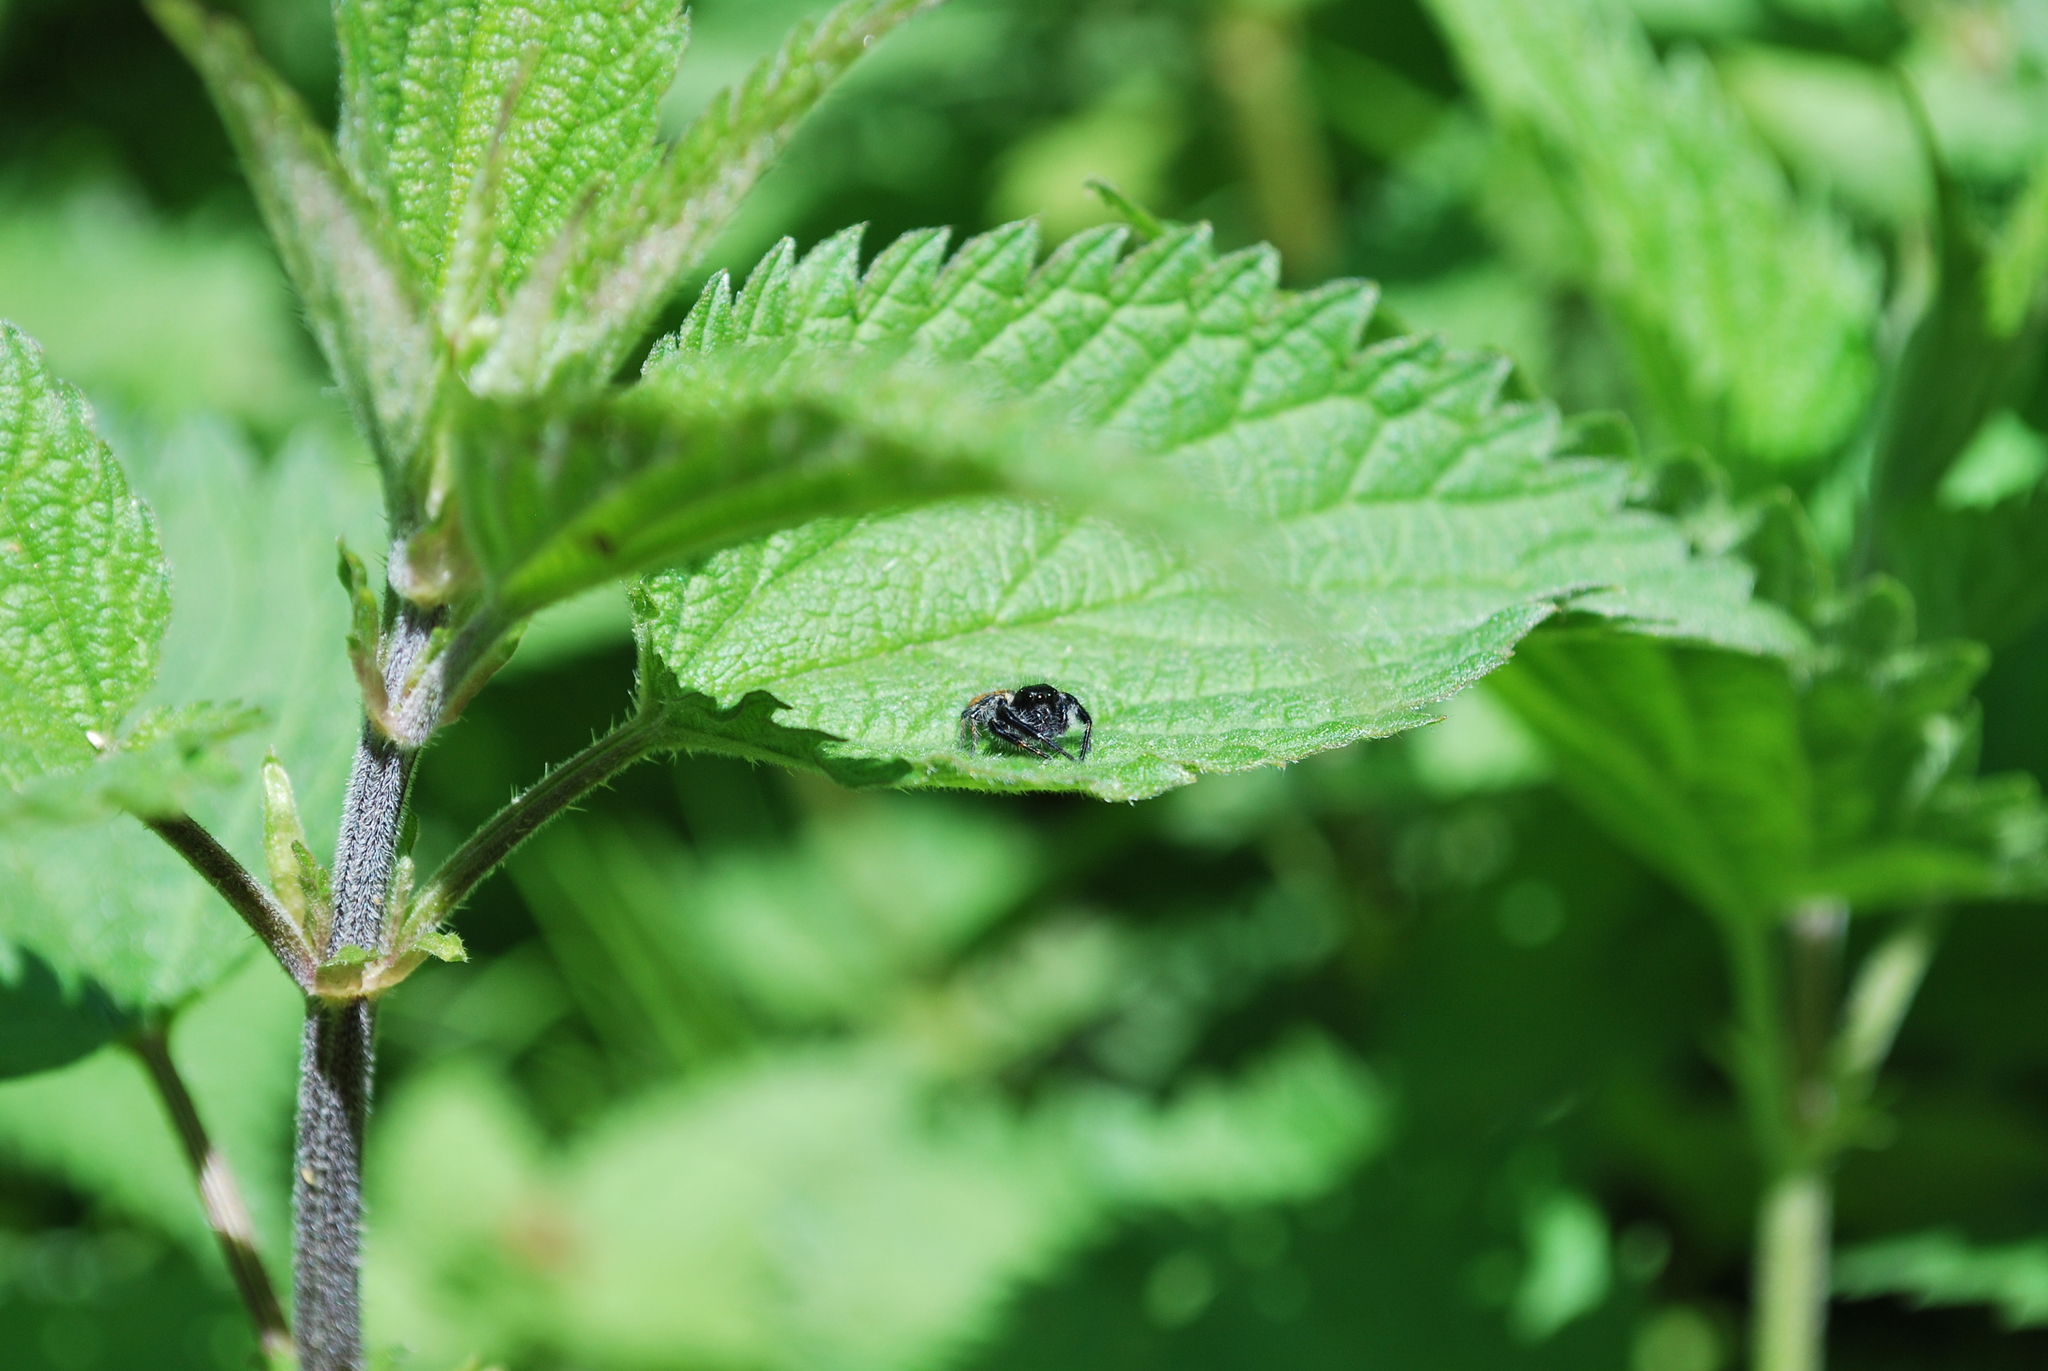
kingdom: Animalia
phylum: Arthropoda
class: Arachnida
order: Araneae
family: Salticidae
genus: Carrhotus
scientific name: Carrhotus xanthogramma
